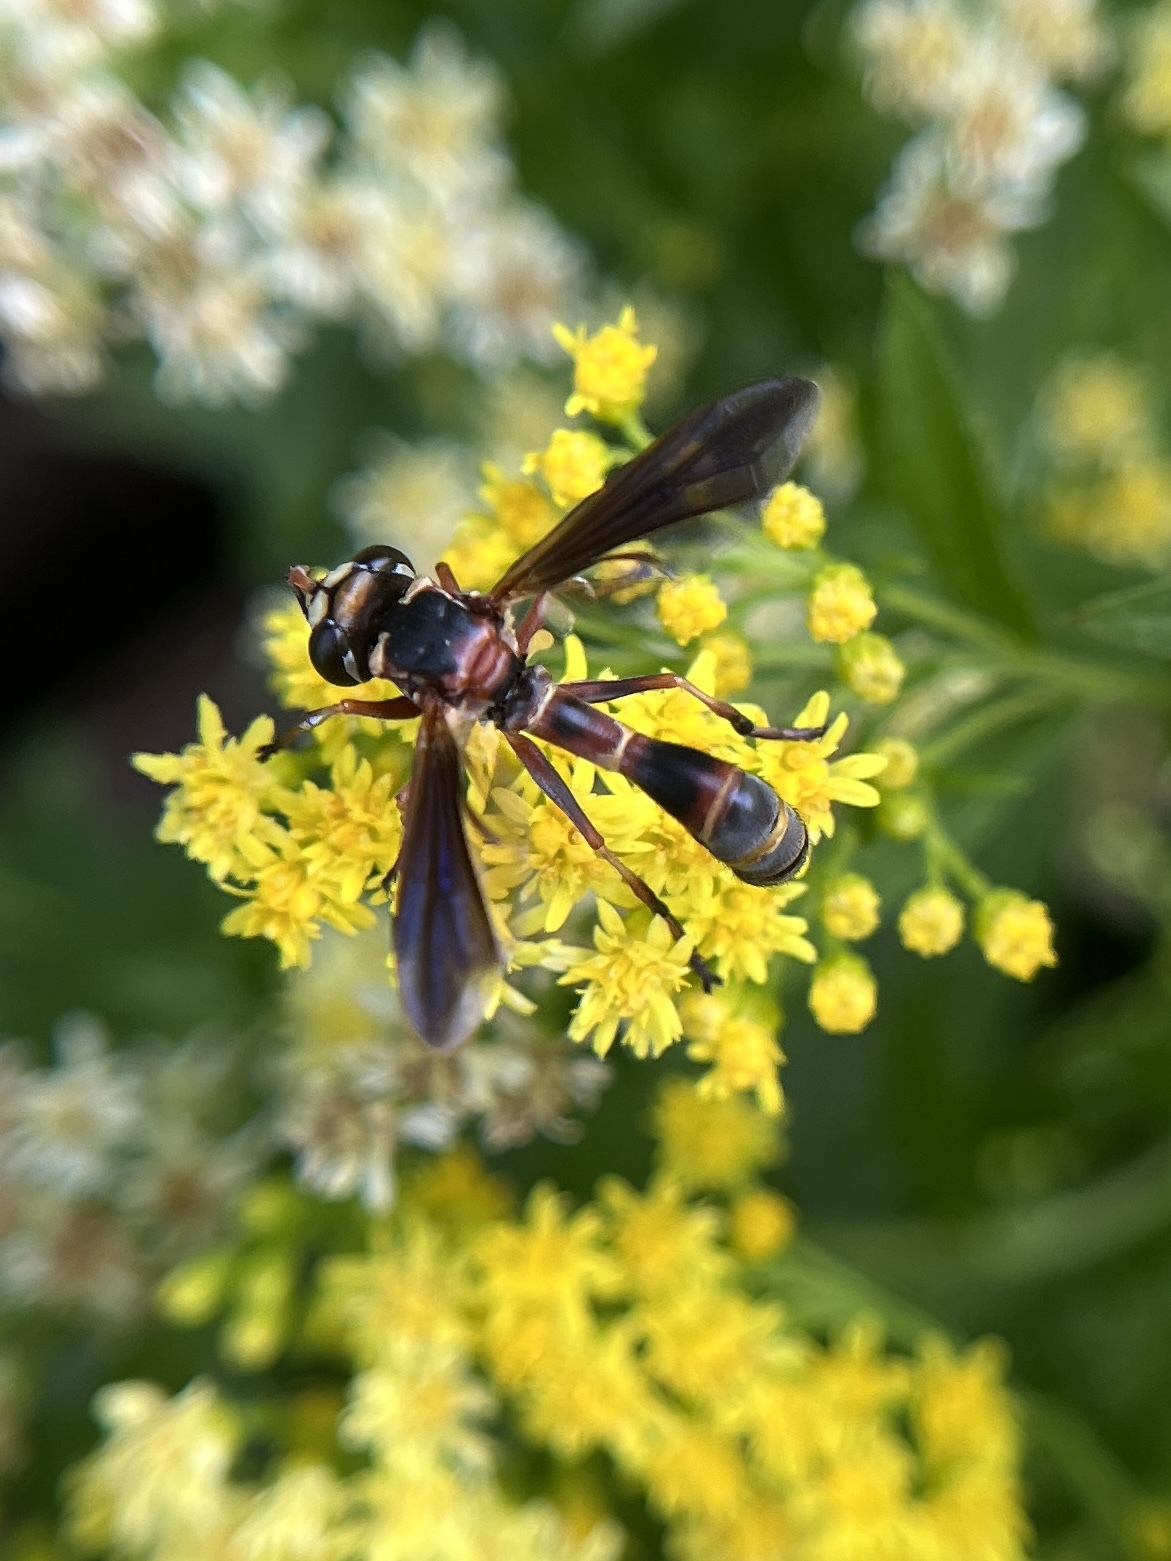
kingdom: Animalia
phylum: Arthropoda
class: Insecta
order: Diptera
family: Conopidae
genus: Physocephala
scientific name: Physocephala sagittaria
